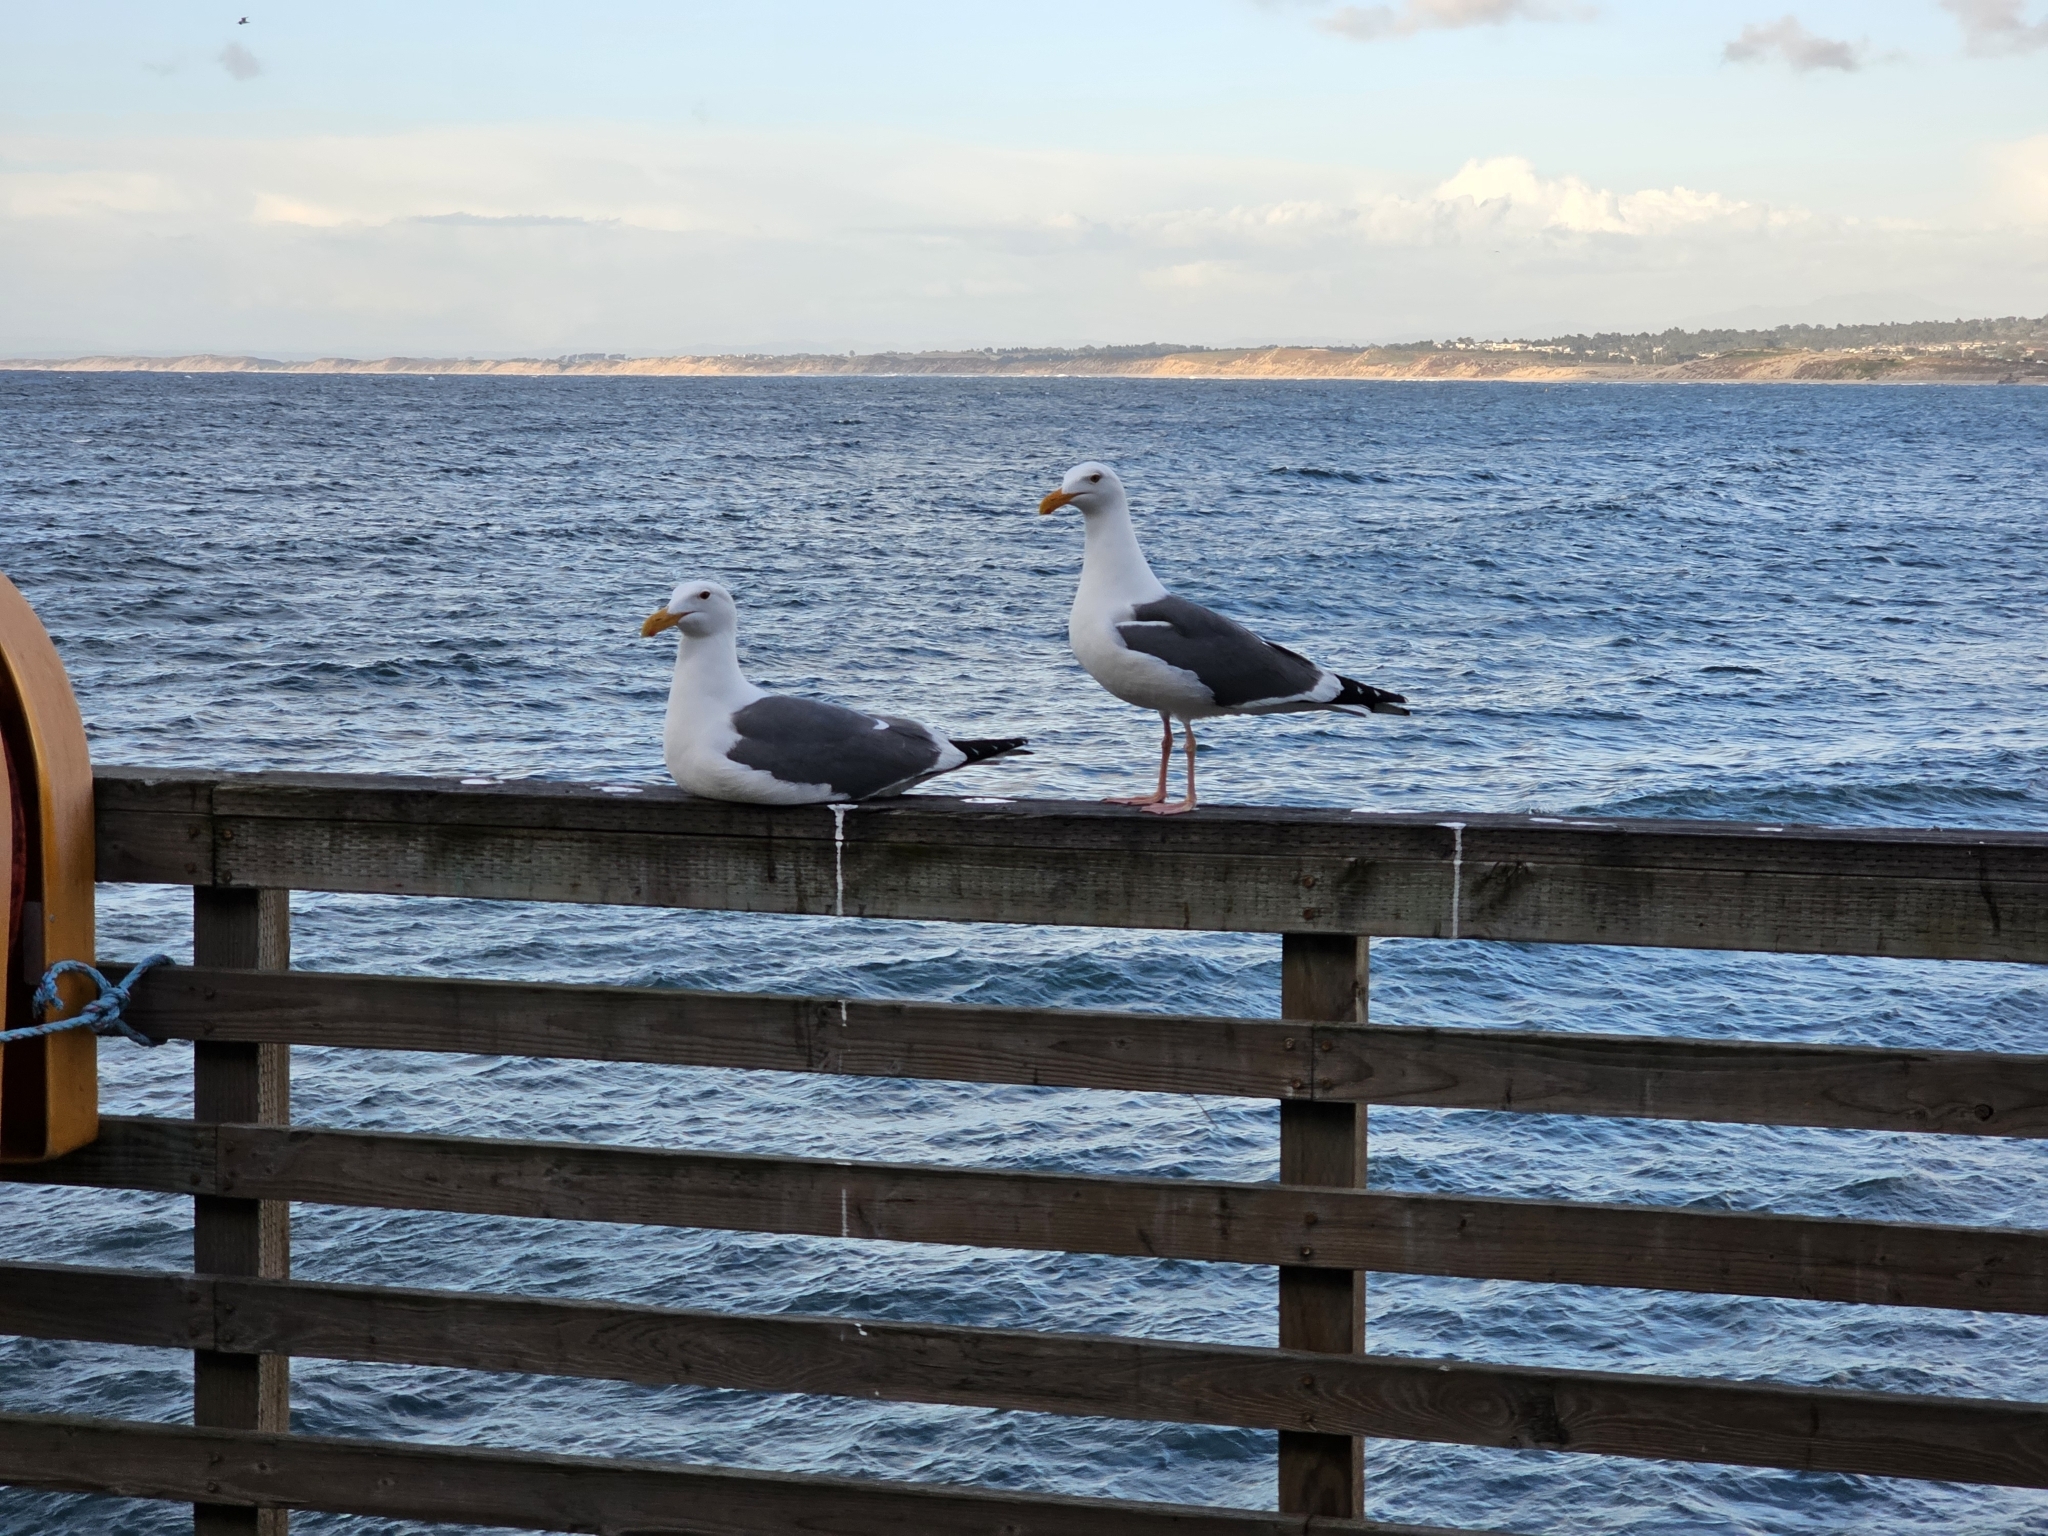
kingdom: Animalia
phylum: Chordata
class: Aves
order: Charadriiformes
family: Laridae
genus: Larus
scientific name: Larus occidentalis
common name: Western gull
